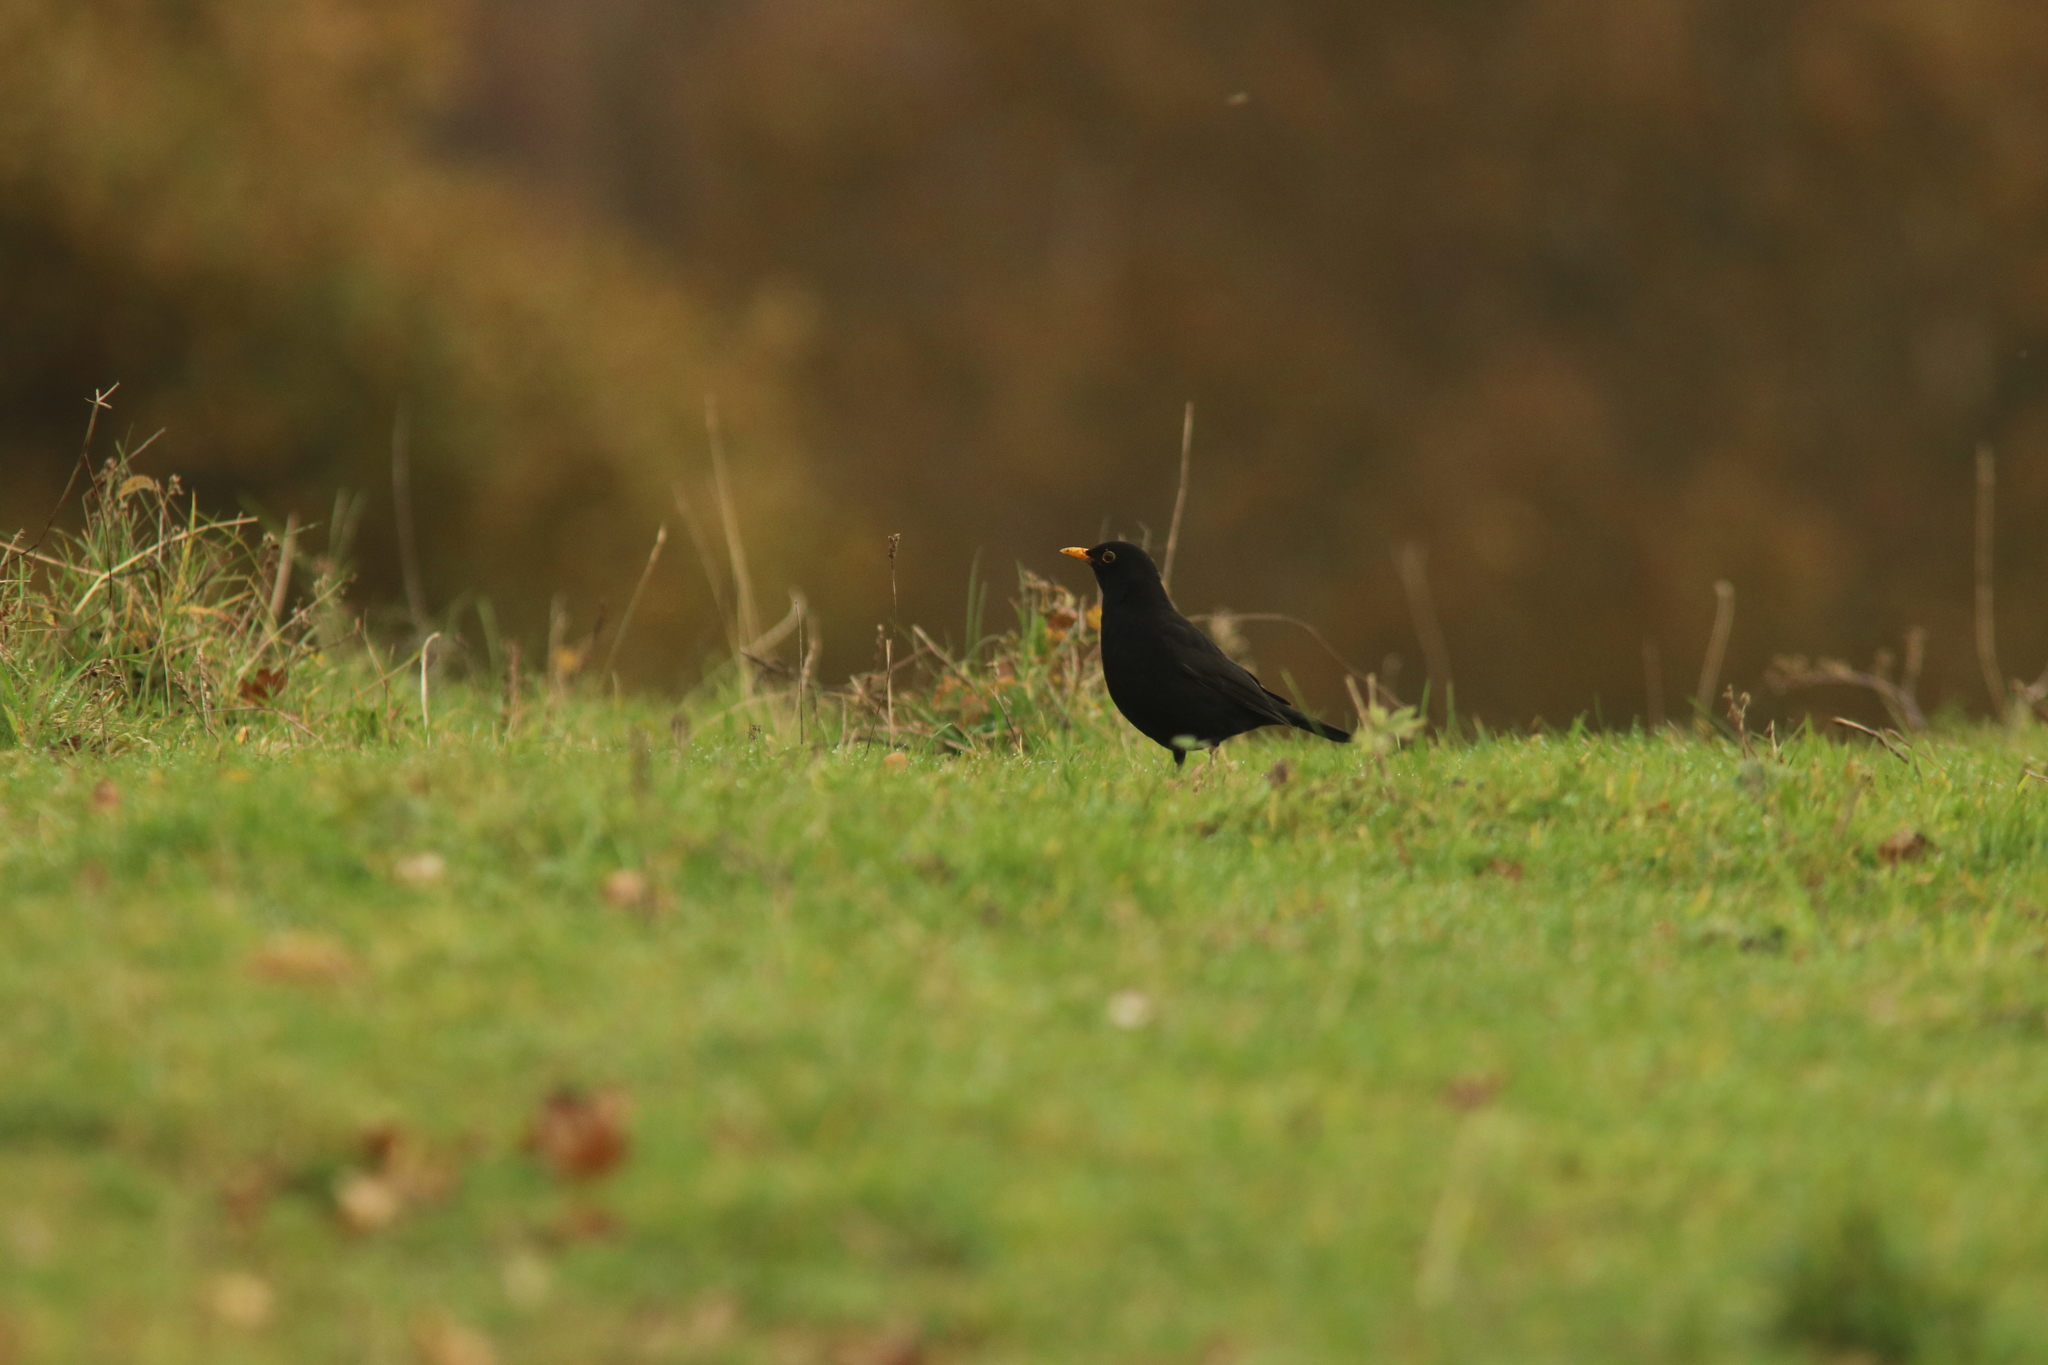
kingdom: Animalia
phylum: Chordata
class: Aves
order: Passeriformes
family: Turdidae
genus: Turdus
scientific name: Turdus merula
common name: Common blackbird
